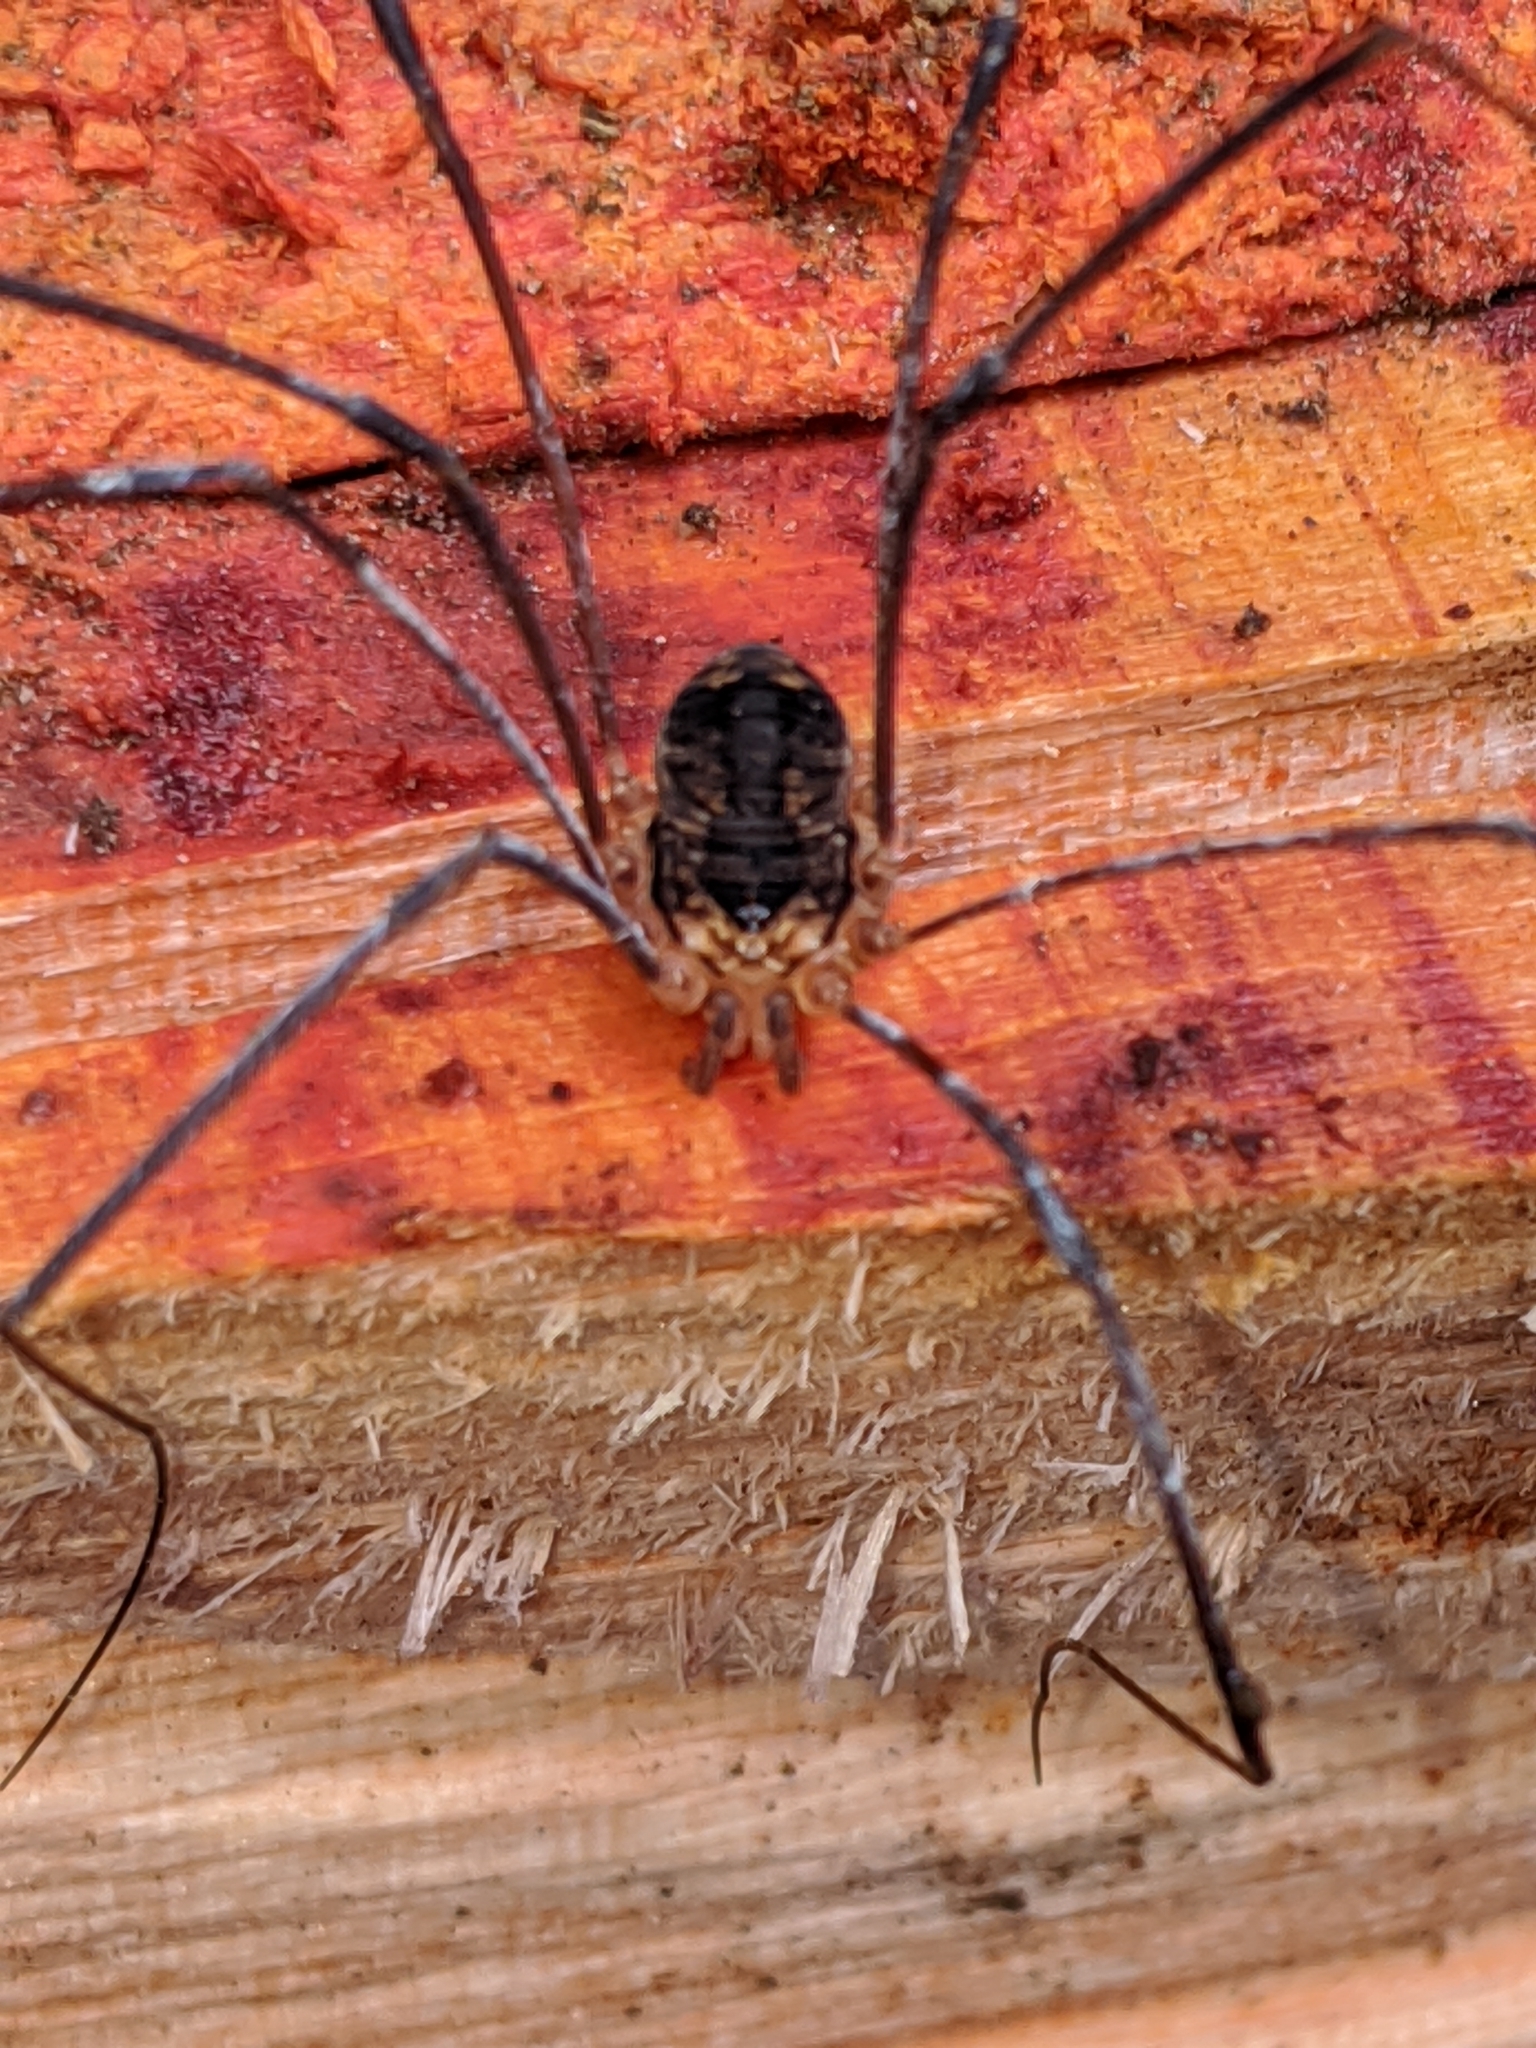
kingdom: Animalia
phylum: Arthropoda
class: Arachnida
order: Opiliones
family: Sclerosomatidae
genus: Nelima
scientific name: Nelima paessleri
